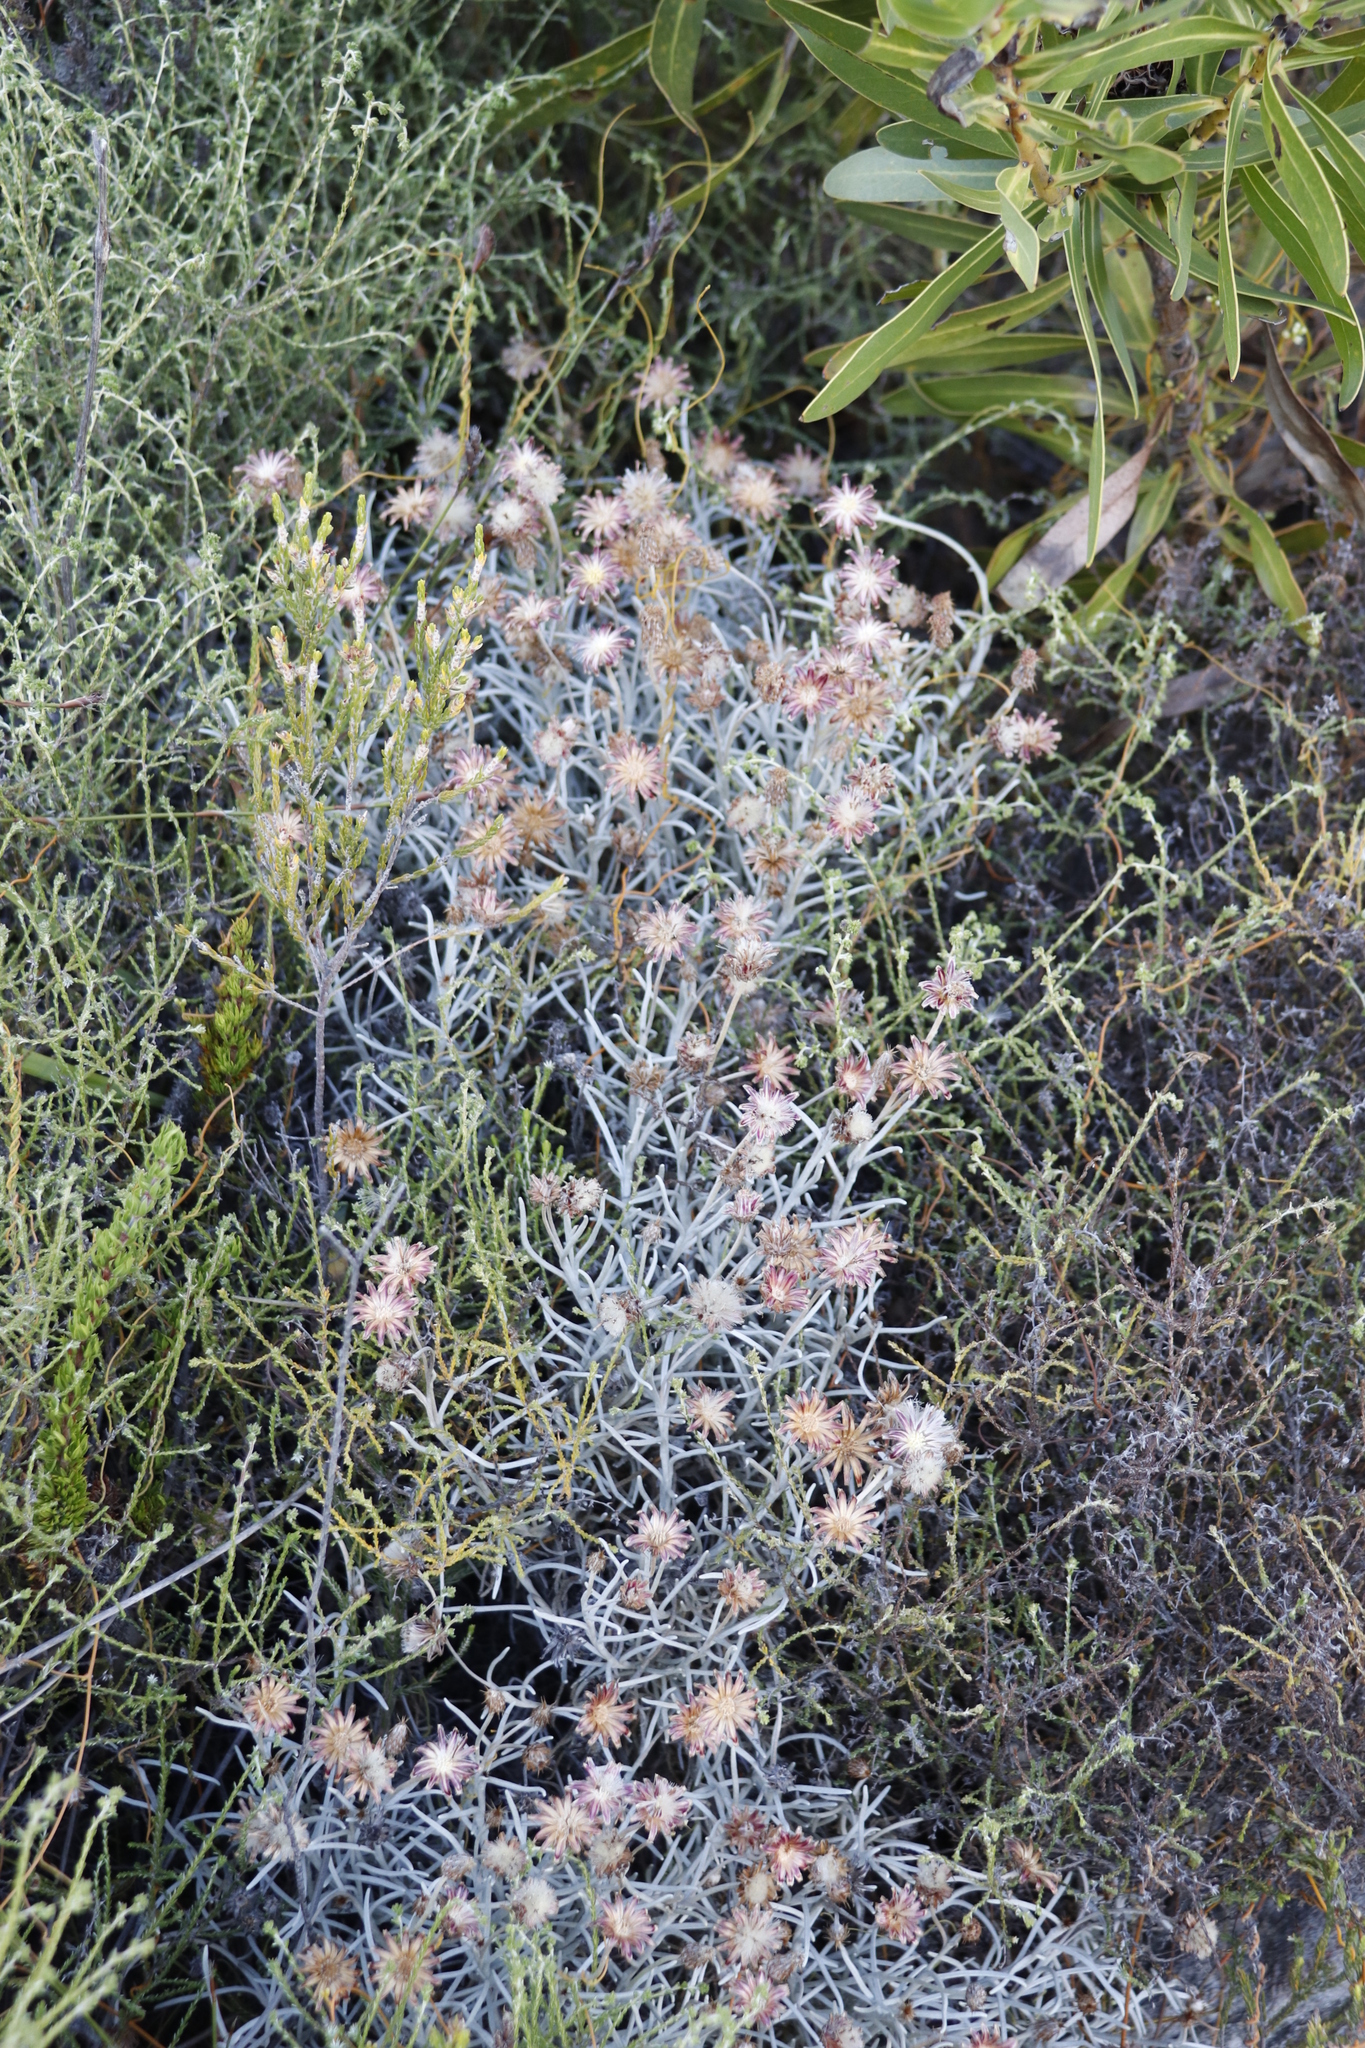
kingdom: Plantae
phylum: Tracheophyta
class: Magnoliopsida
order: Asterales
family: Asteraceae
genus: Syncarpha
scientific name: Syncarpha gnaphaloides
